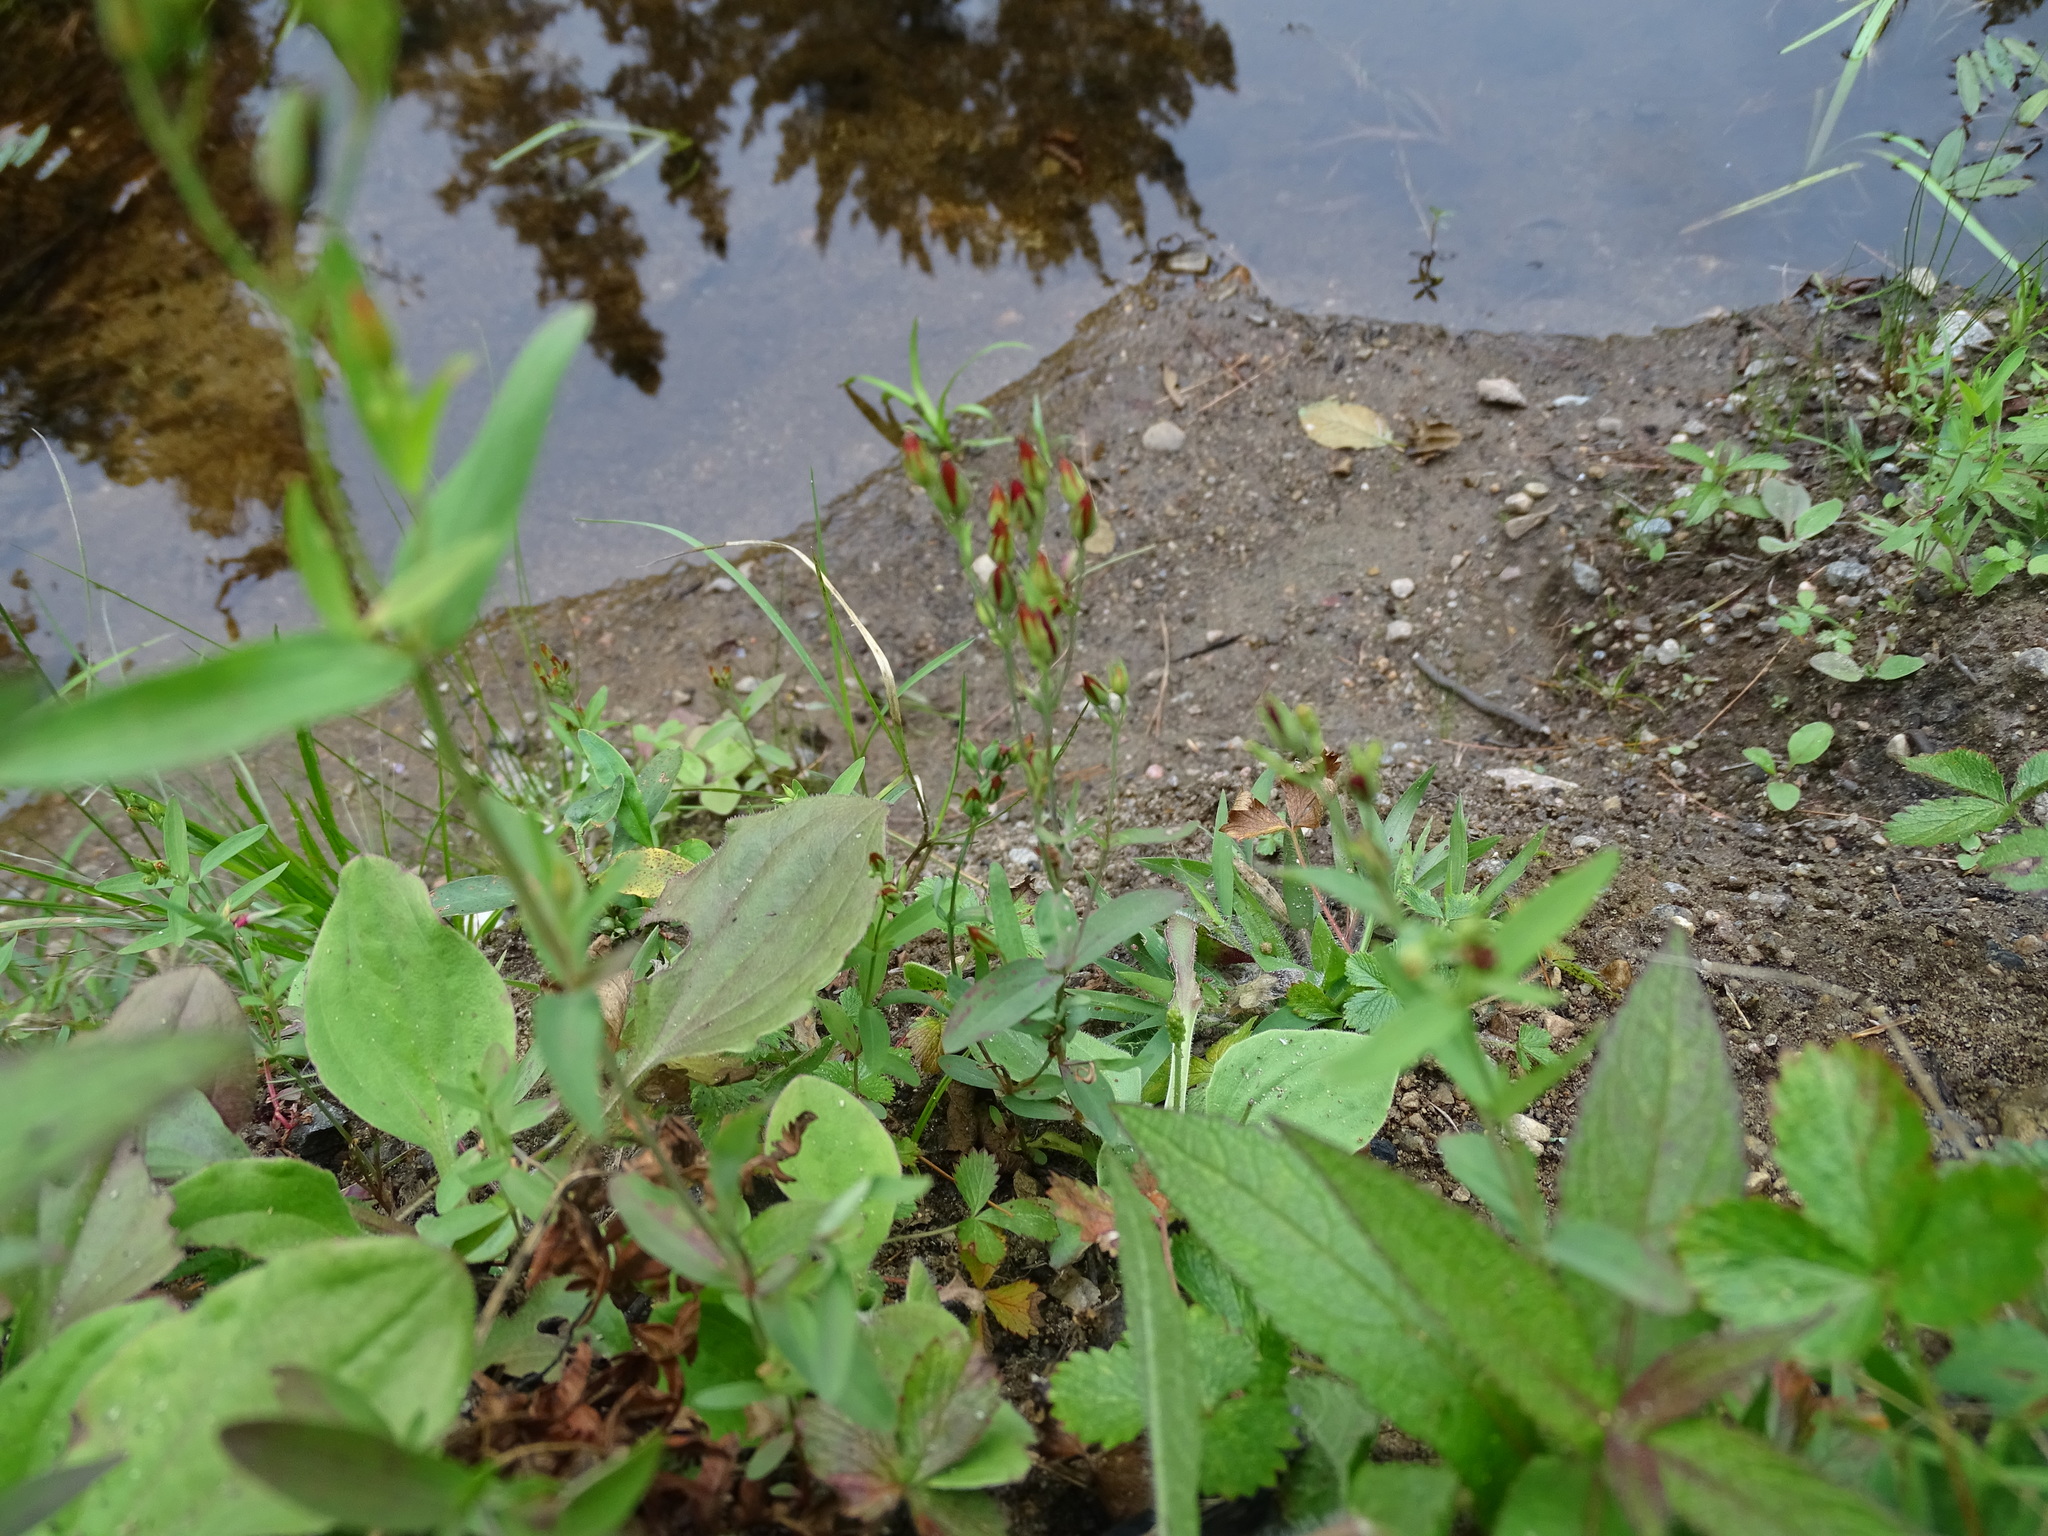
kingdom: Plantae
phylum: Tracheophyta
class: Magnoliopsida
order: Malpighiales
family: Hypericaceae
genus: Hypericum
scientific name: Hypericum majus
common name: Greater canadian st. john's-wort
